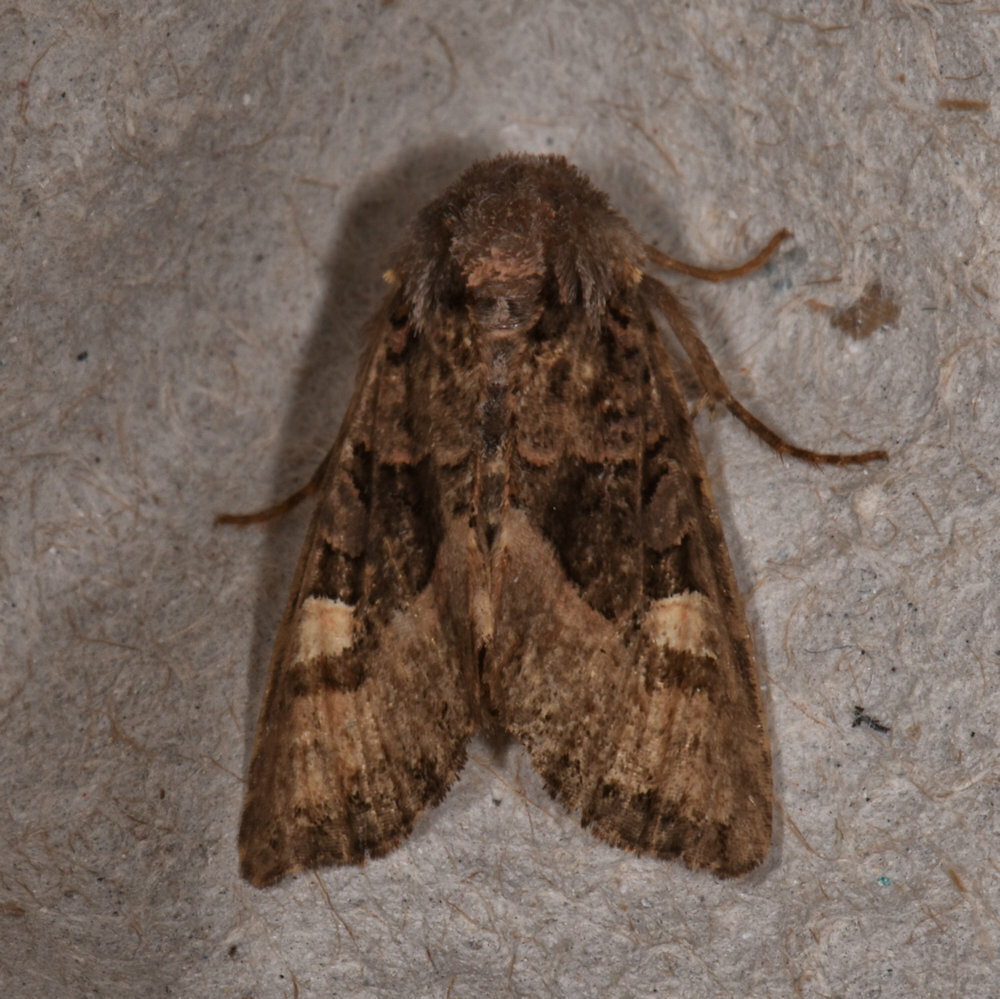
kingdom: Animalia
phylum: Arthropoda
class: Insecta
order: Lepidoptera
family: Noctuidae
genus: Euplexia
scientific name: Euplexia benesimilis
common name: American angle shades
